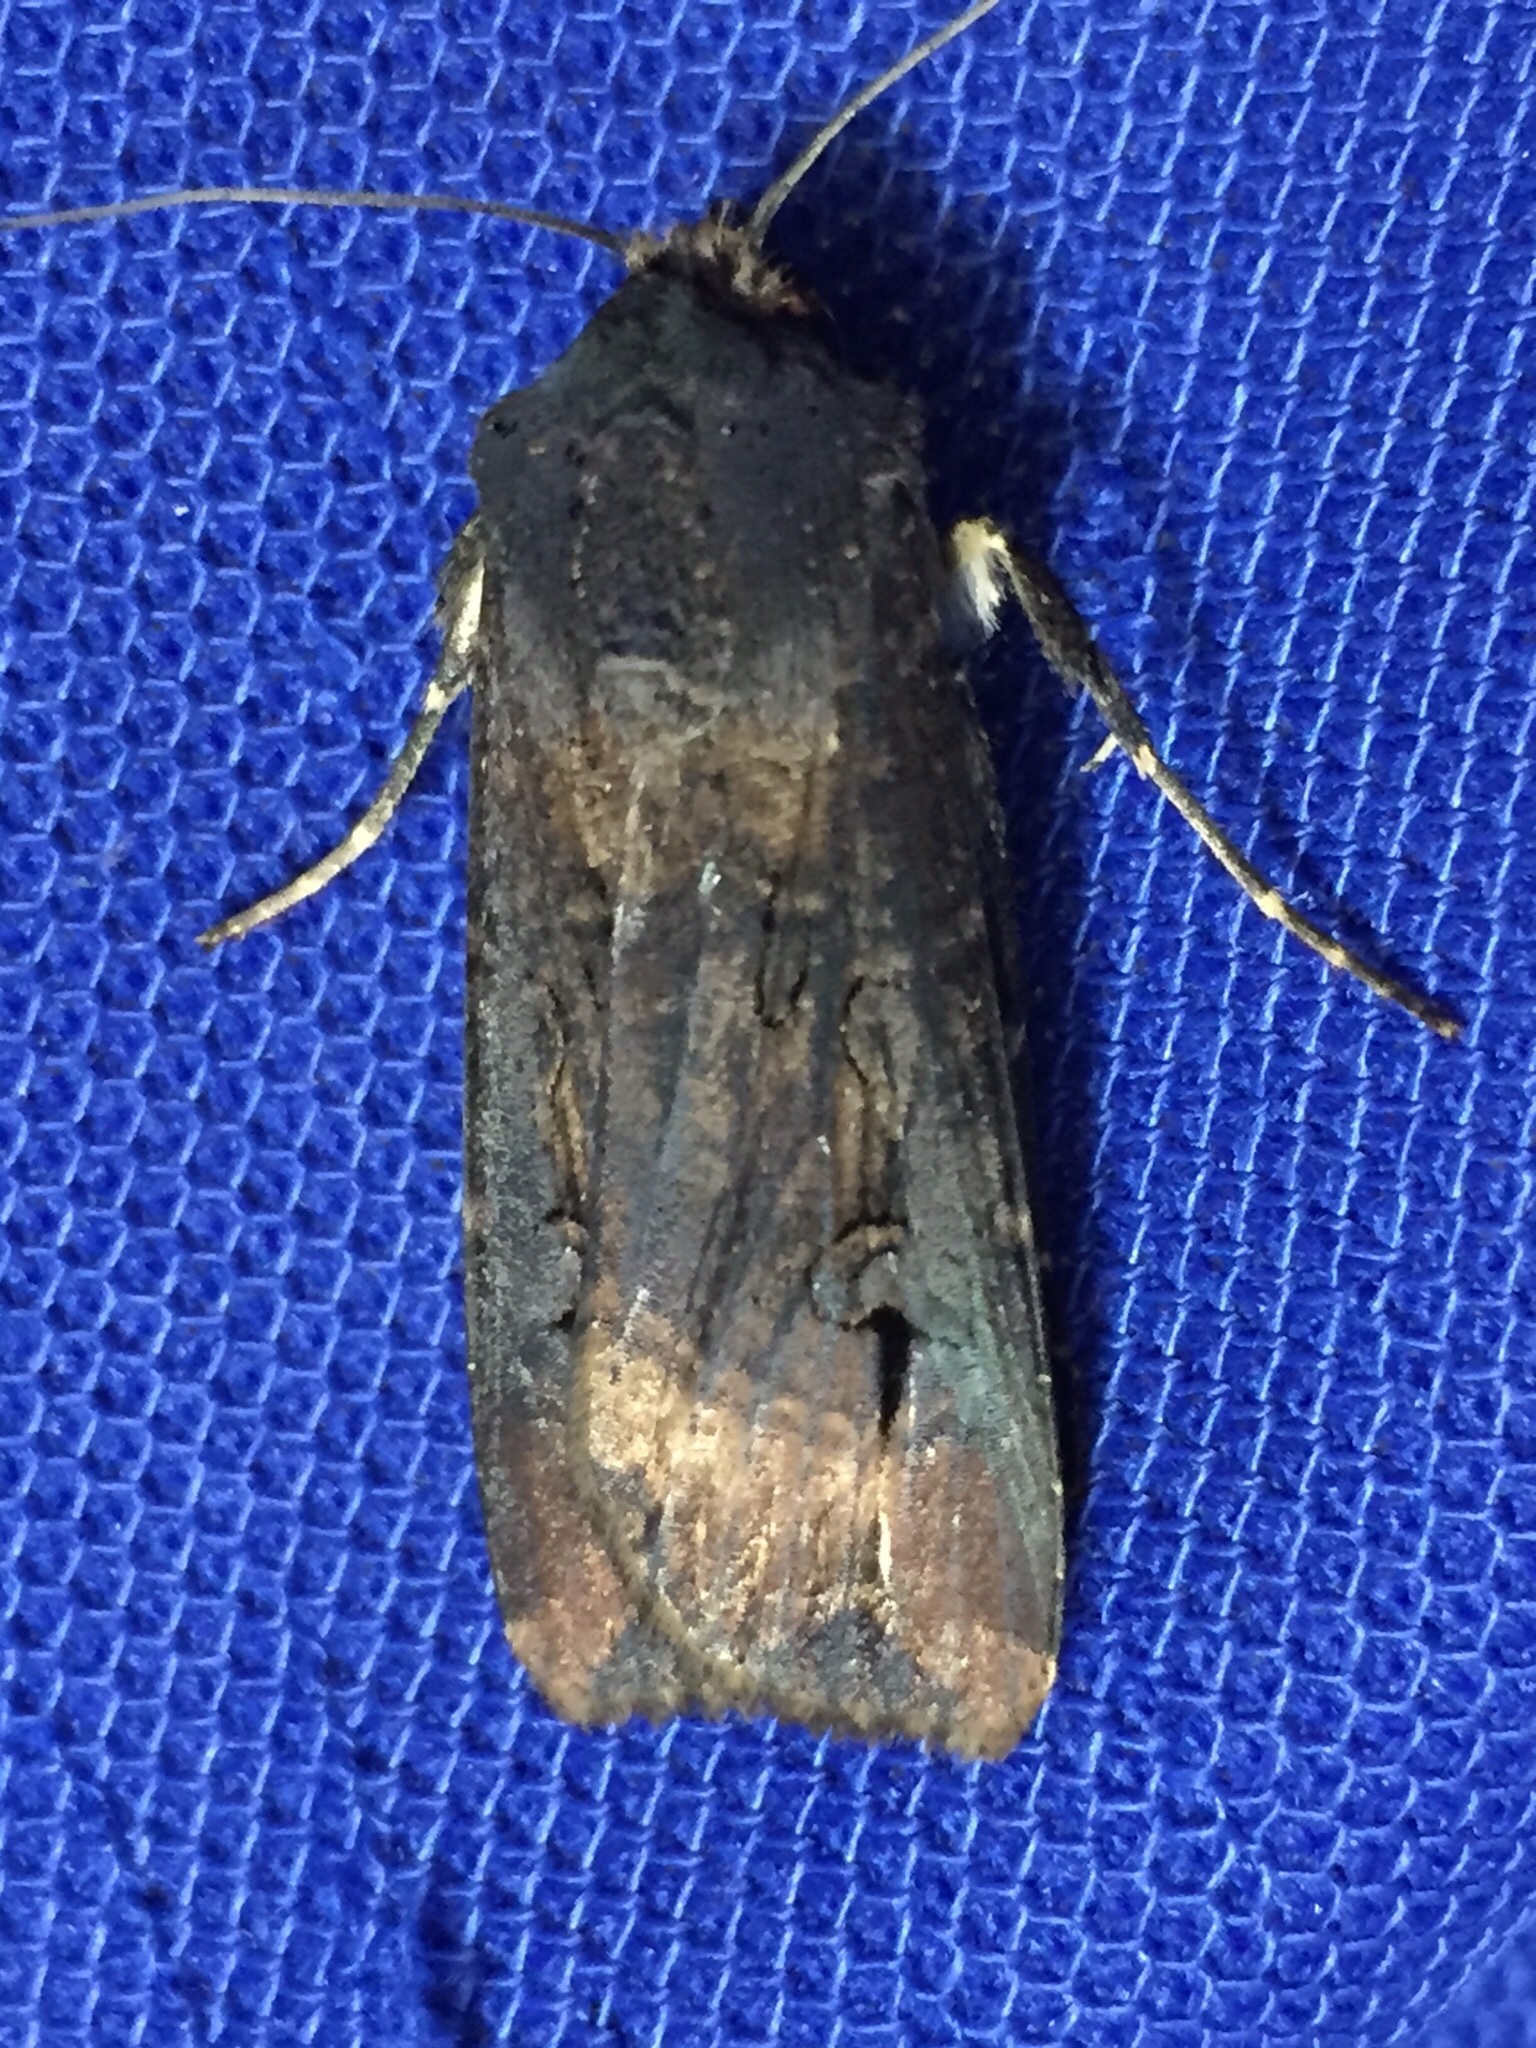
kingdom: Animalia
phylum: Arthropoda
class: Insecta
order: Lepidoptera
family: Noctuidae
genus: Agrotis
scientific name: Agrotis ipsilon
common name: Dark sword-grass
